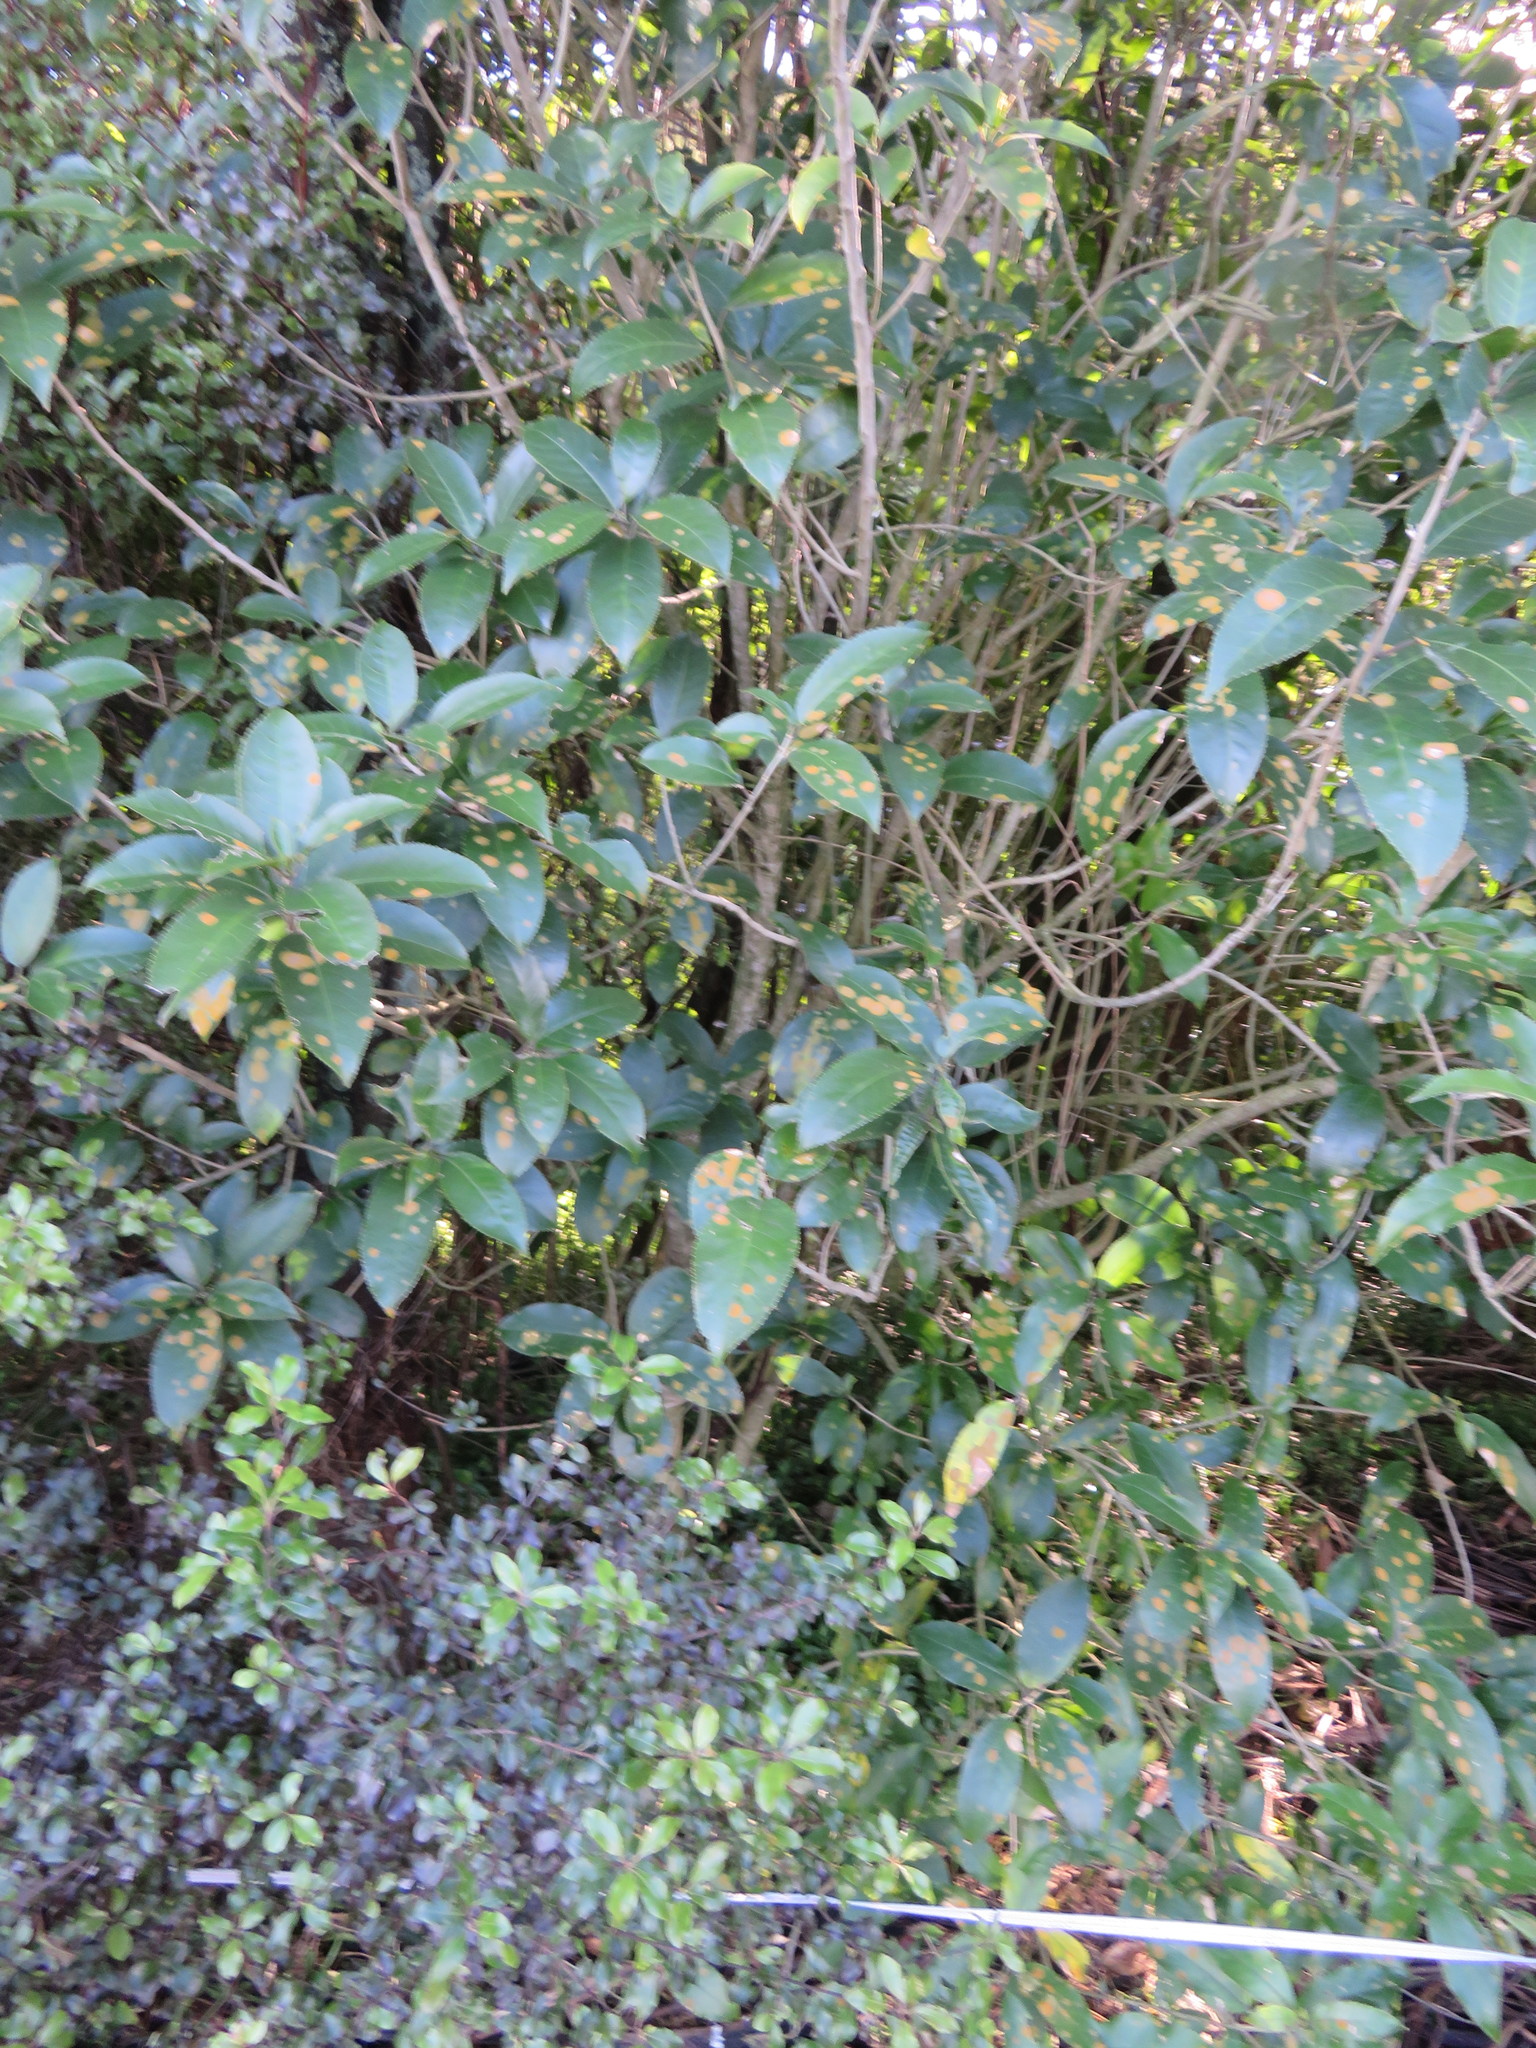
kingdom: Plantae
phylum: Tracheophyta
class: Magnoliopsida
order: Malpighiales
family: Violaceae
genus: Melicytus
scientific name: Melicytus ramiflorus
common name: Mahoe
